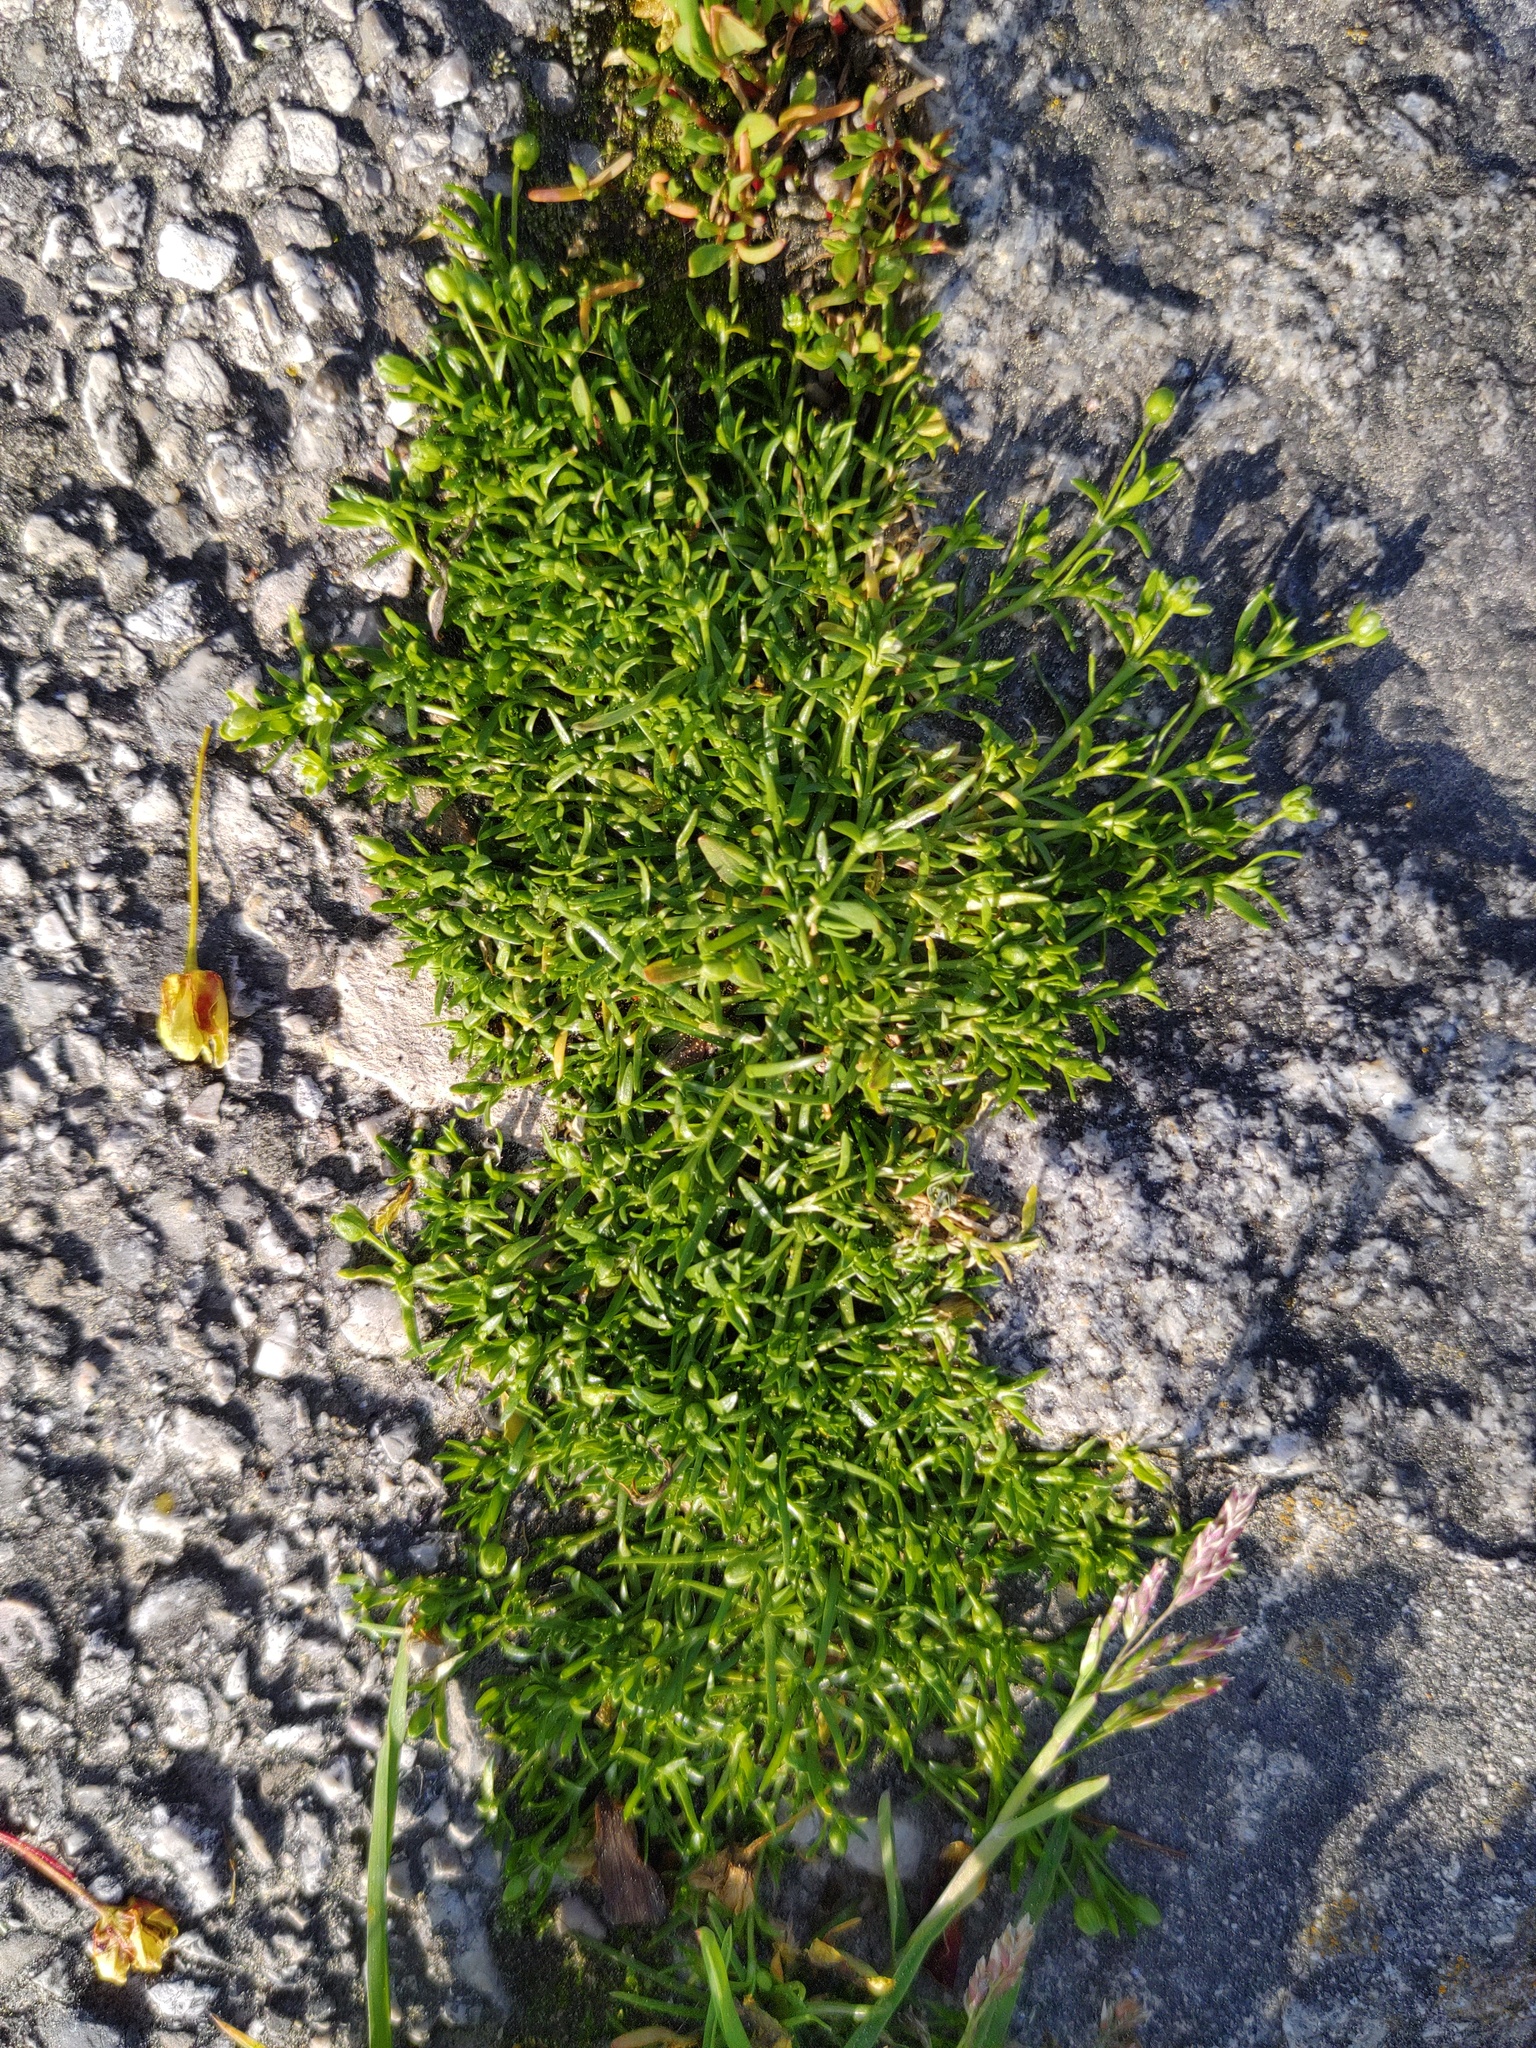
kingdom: Plantae
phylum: Tracheophyta
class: Magnoliopsida
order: Caryophyllales
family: Caryophyllaceae
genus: Sagina
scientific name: Sagina procumbens
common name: Procumbent pearlwort
